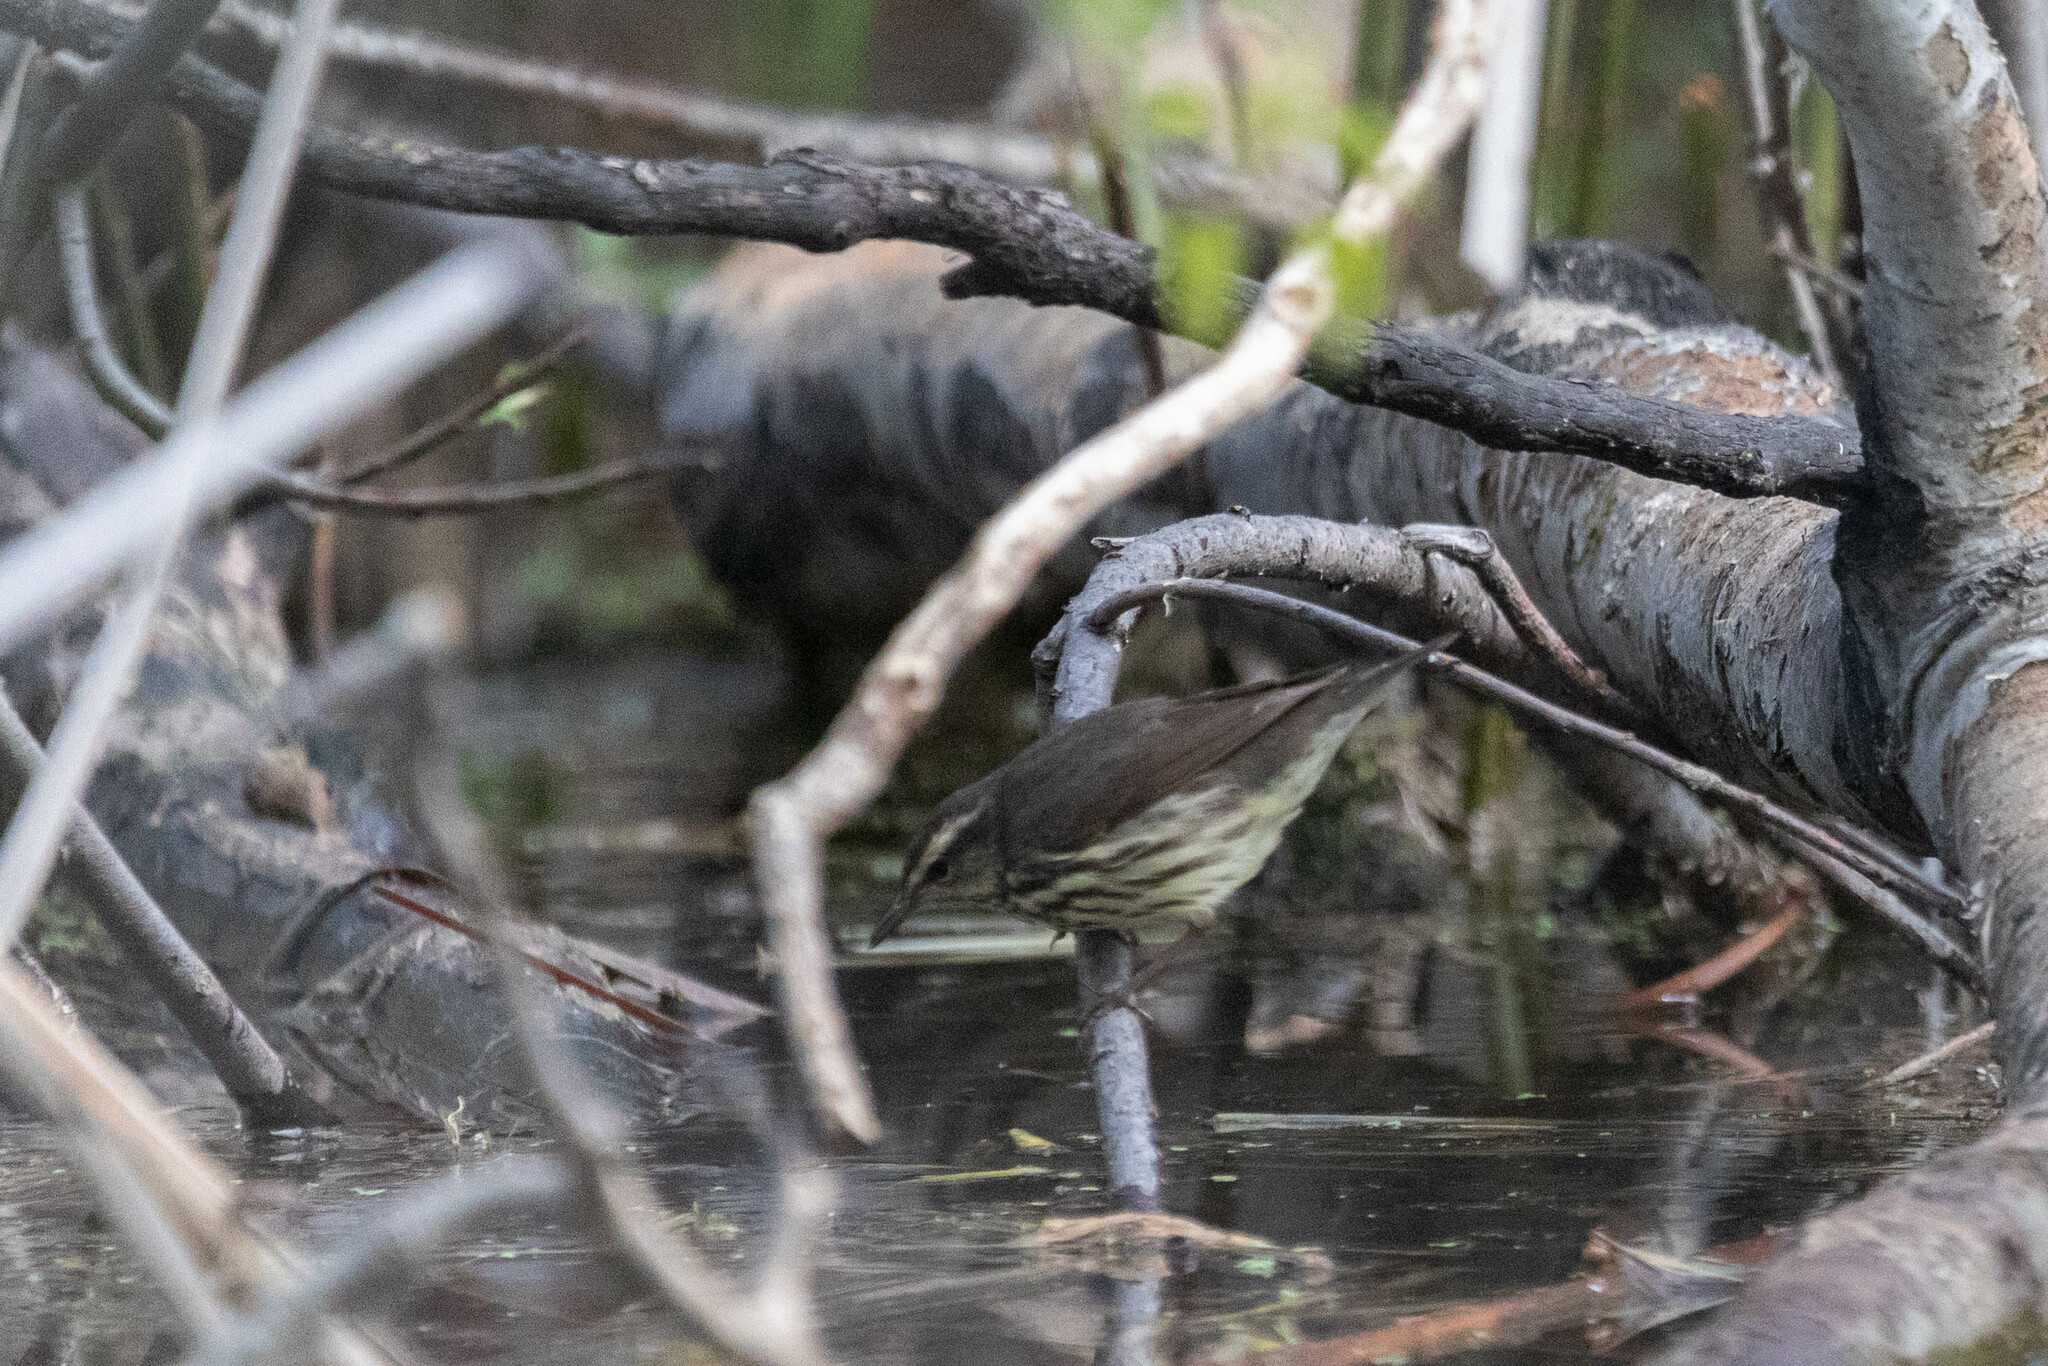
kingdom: Animalia
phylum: Chordata
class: Aves
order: Passeriformes
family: Parulidae
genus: Parkesia
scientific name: Parkesia noveboracensis
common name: Northern waterthrush
